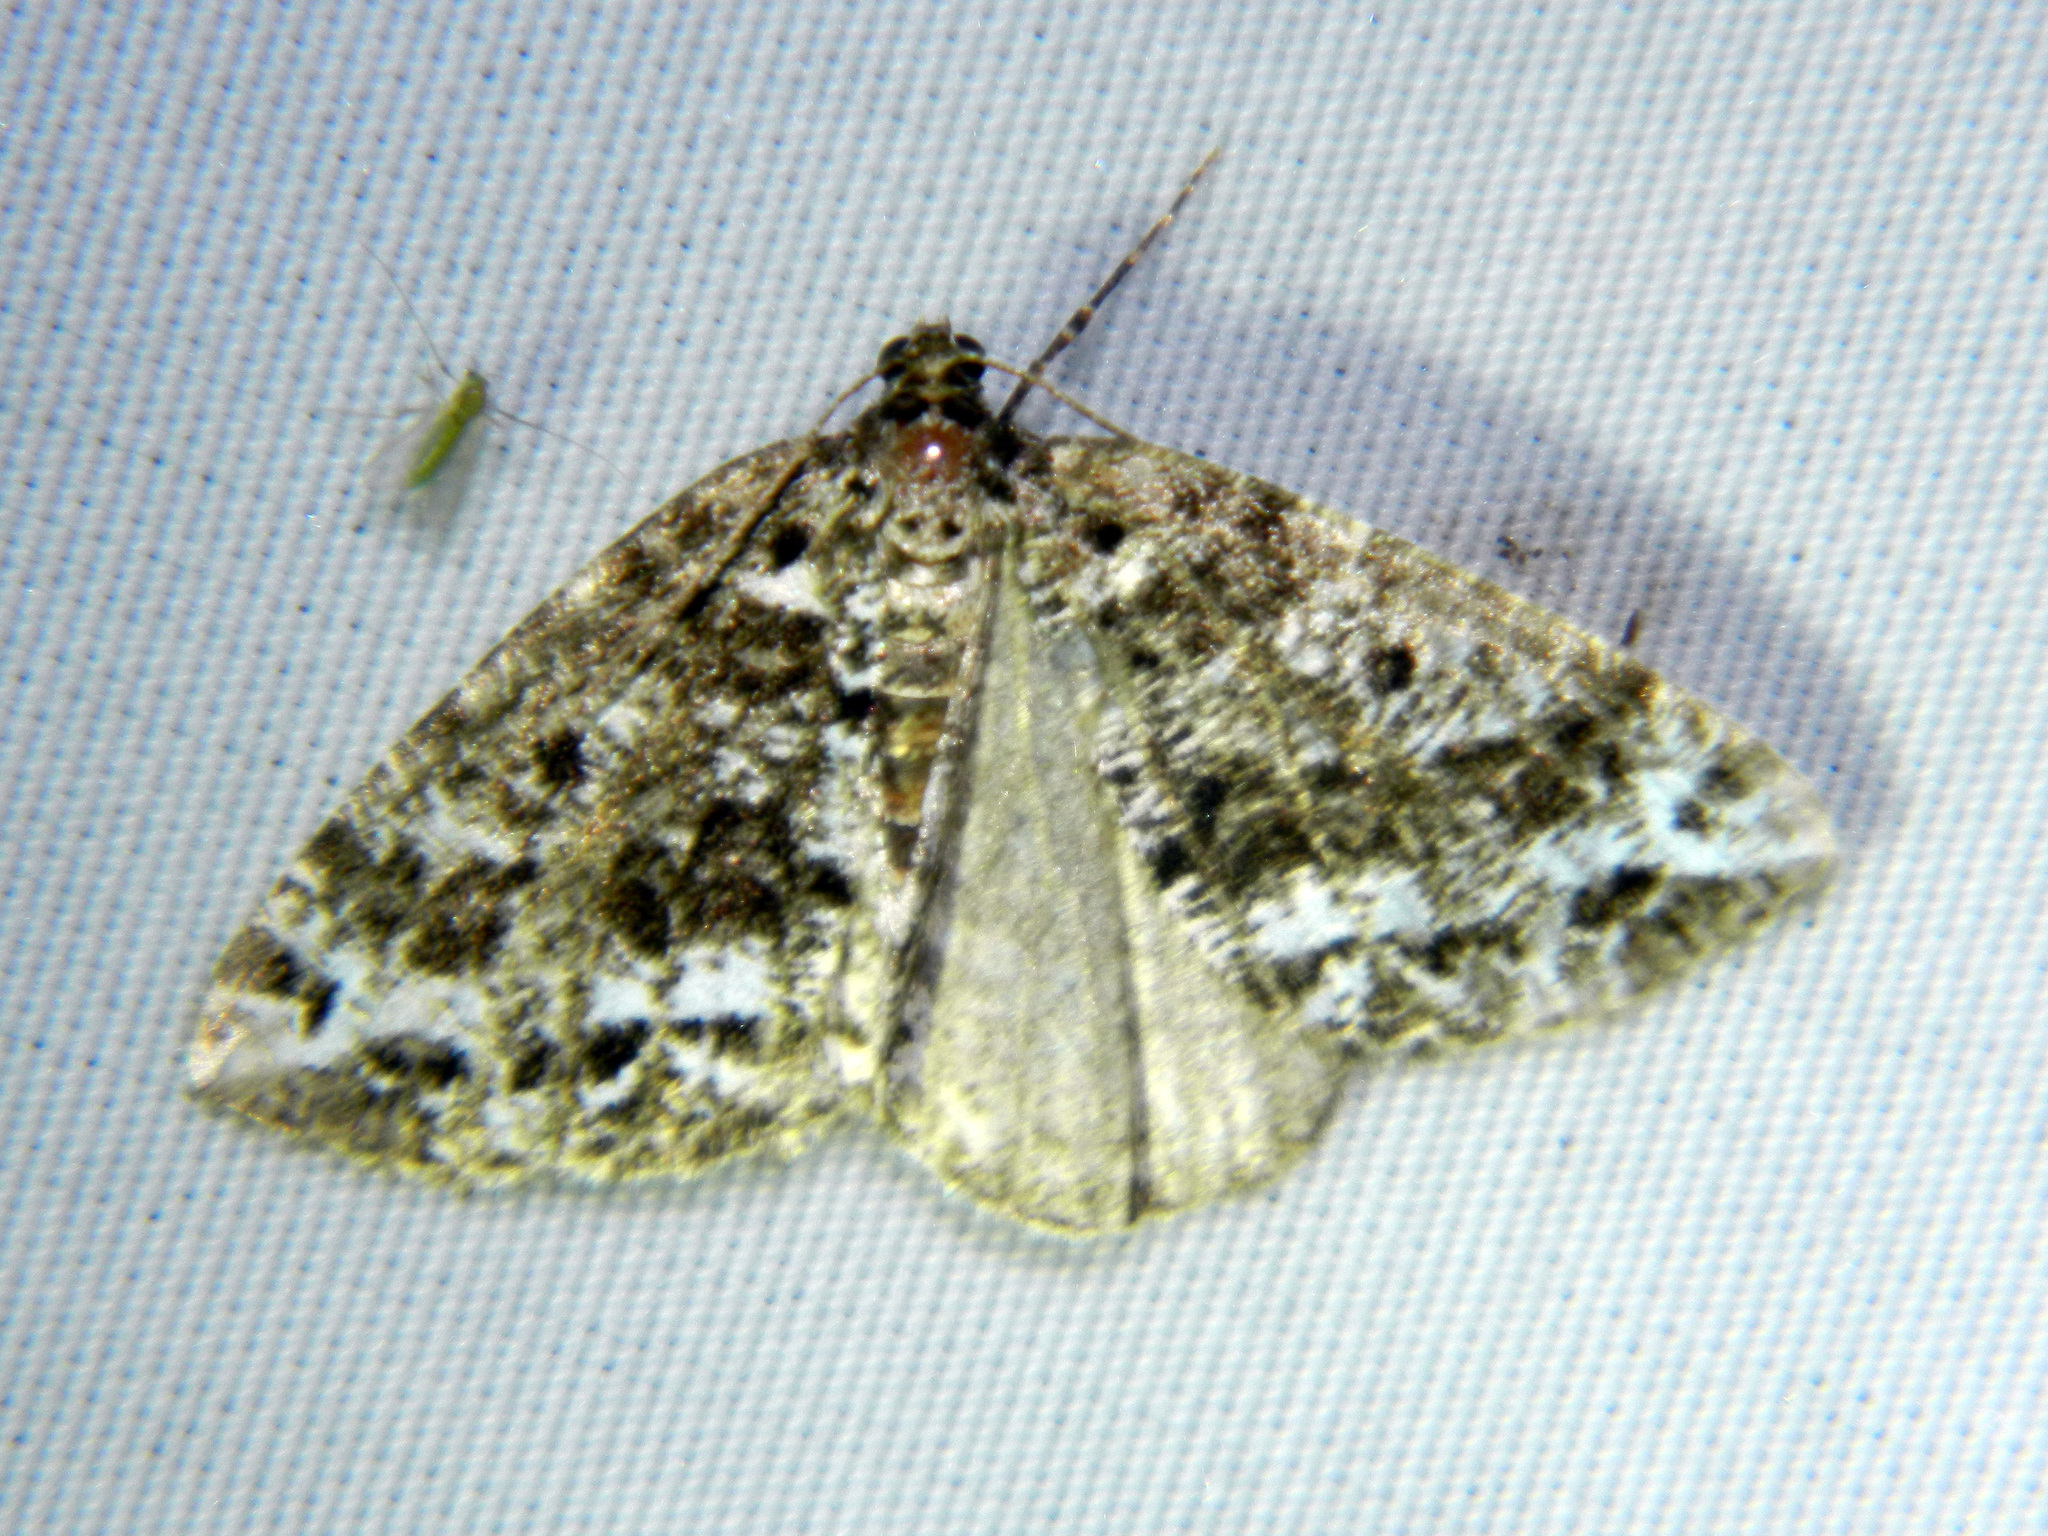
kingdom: Animalia
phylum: Arthropoda
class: Insecta
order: Lepidoptera
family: Geometridae
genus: Orthofidonia
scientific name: Orthofidonia tinctaria
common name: Marbled wave
